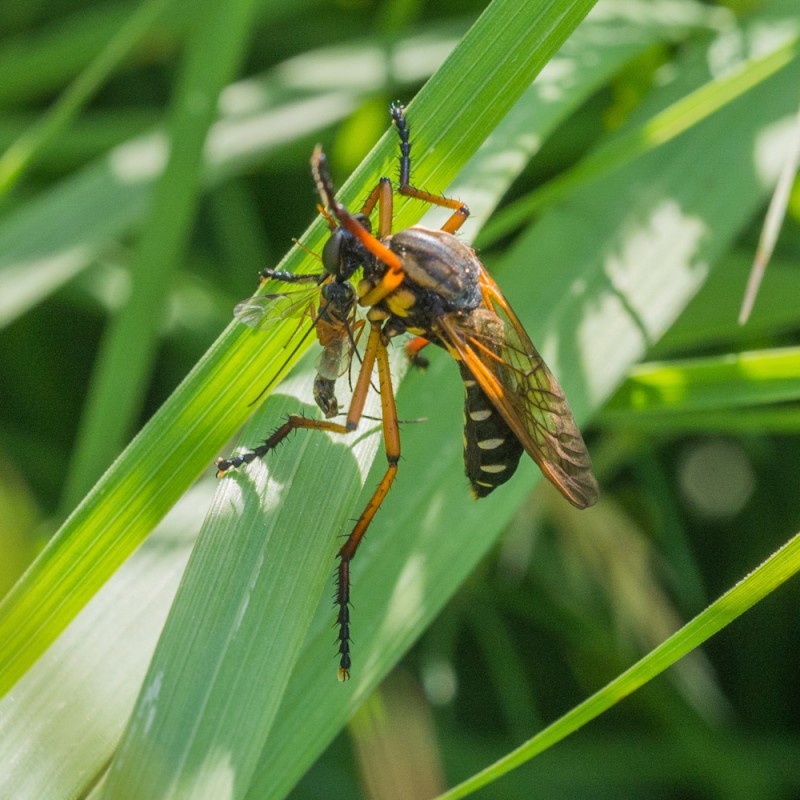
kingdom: Animalia
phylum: Arthropoda
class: Insecta
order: Diptera
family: Asilidae
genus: Molobratia
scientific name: Molobratia teutona
